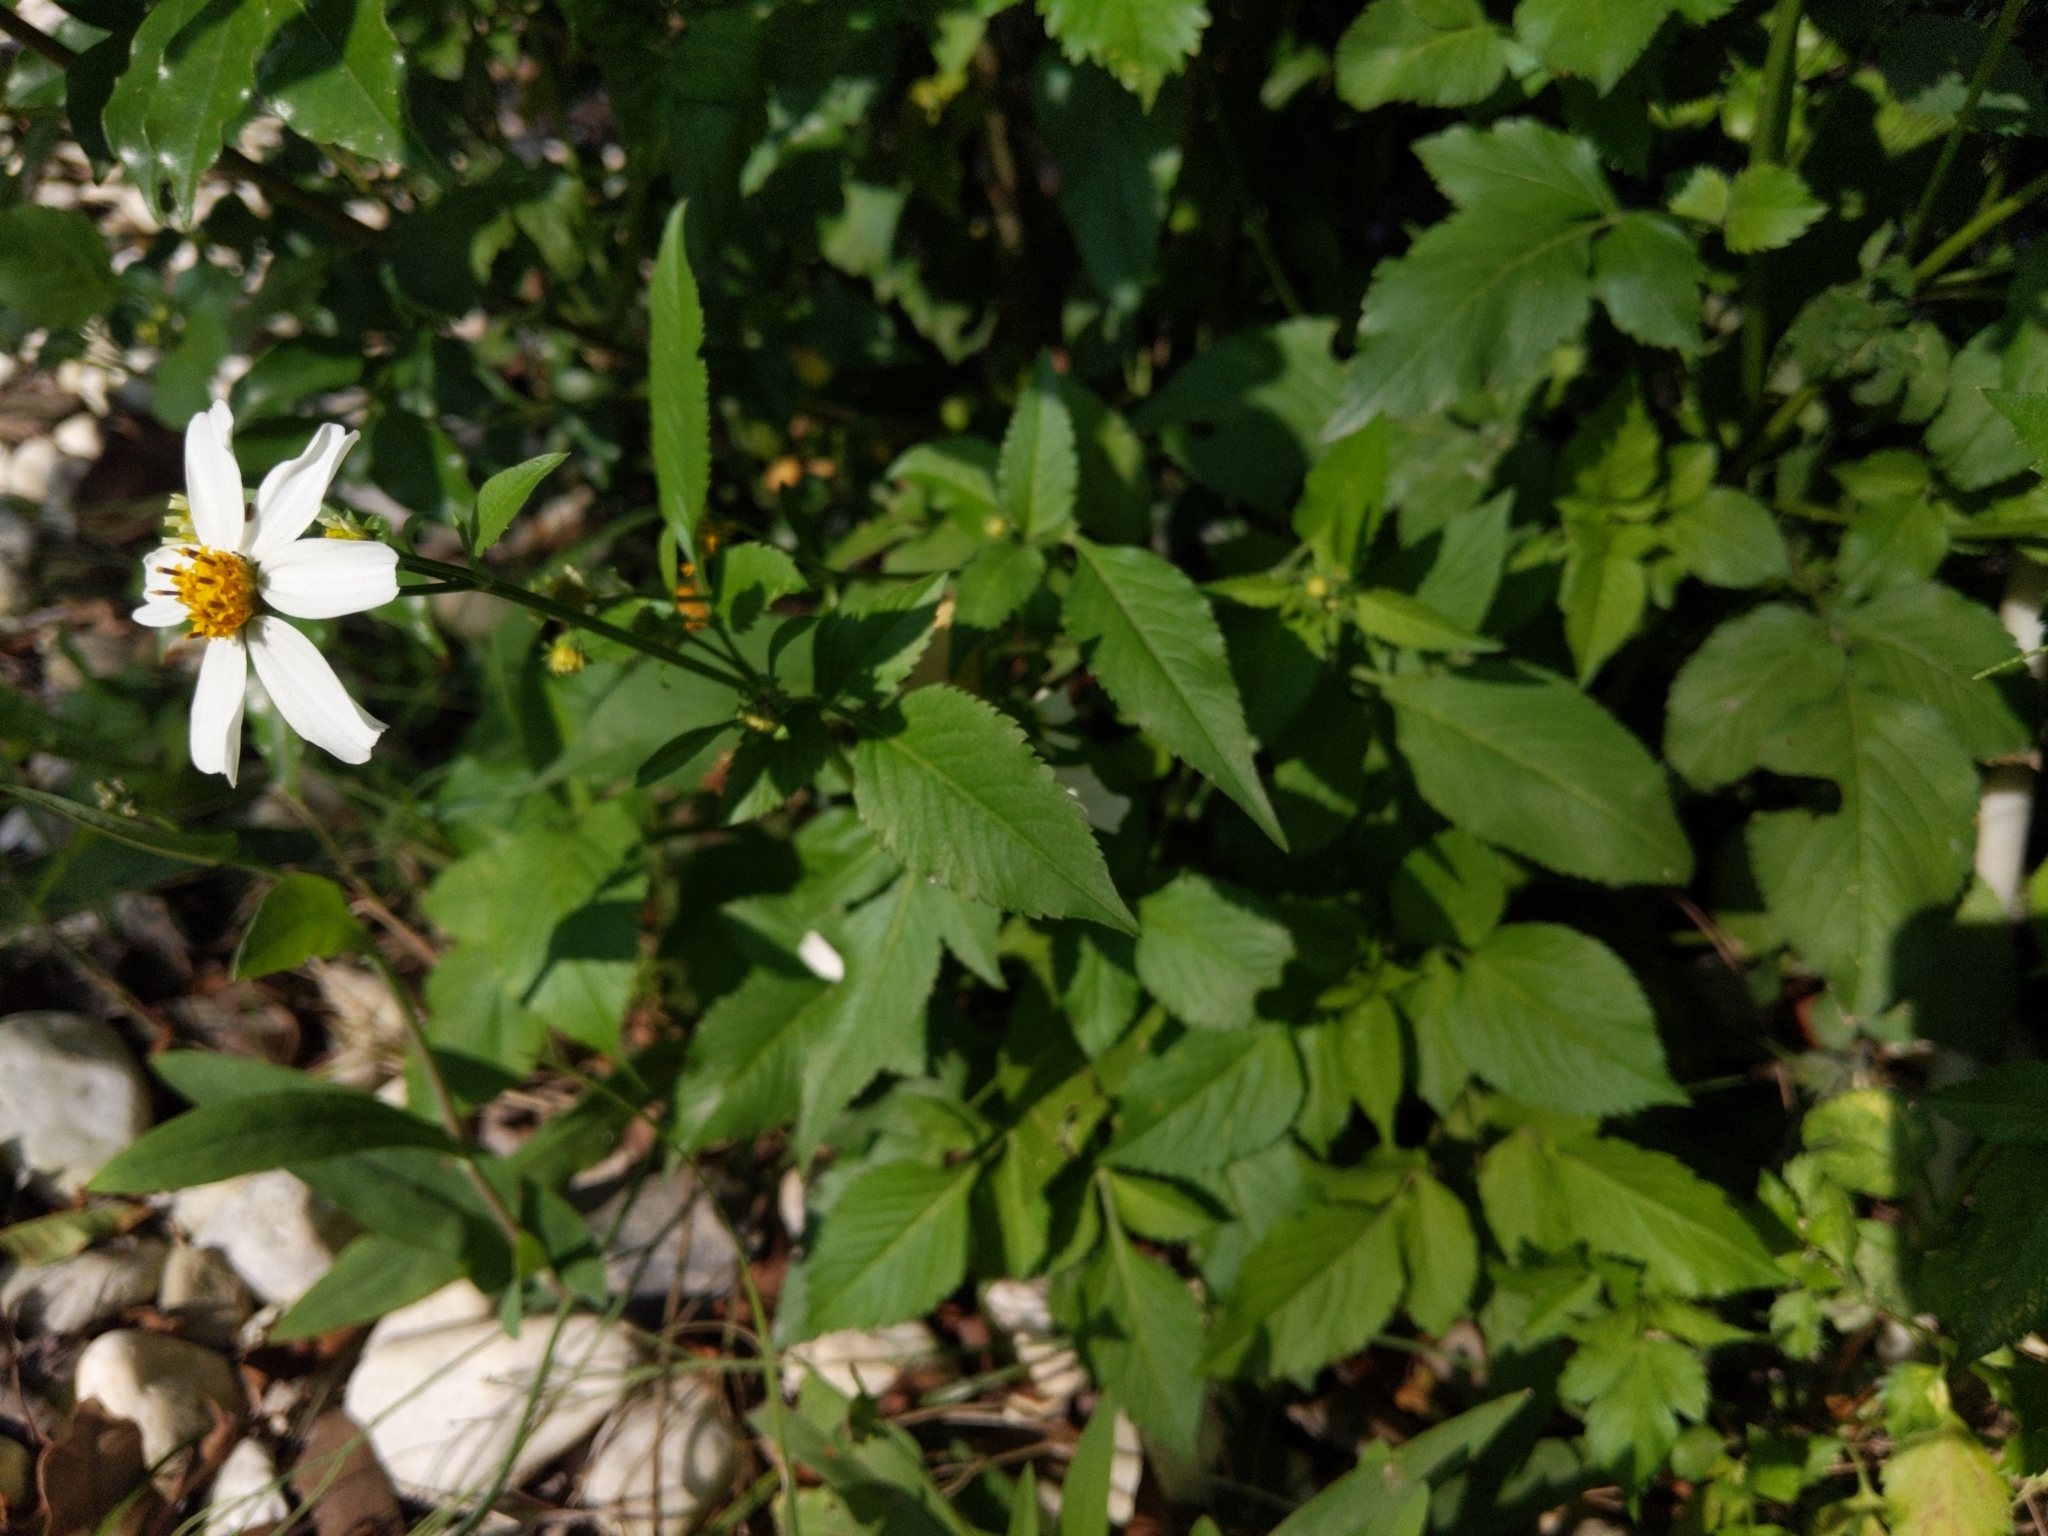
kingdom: Plantae
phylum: Tracheophyta
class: Magnoliopsida
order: Asterales
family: Asteraceae
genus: Bidens
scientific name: Bidens alba
